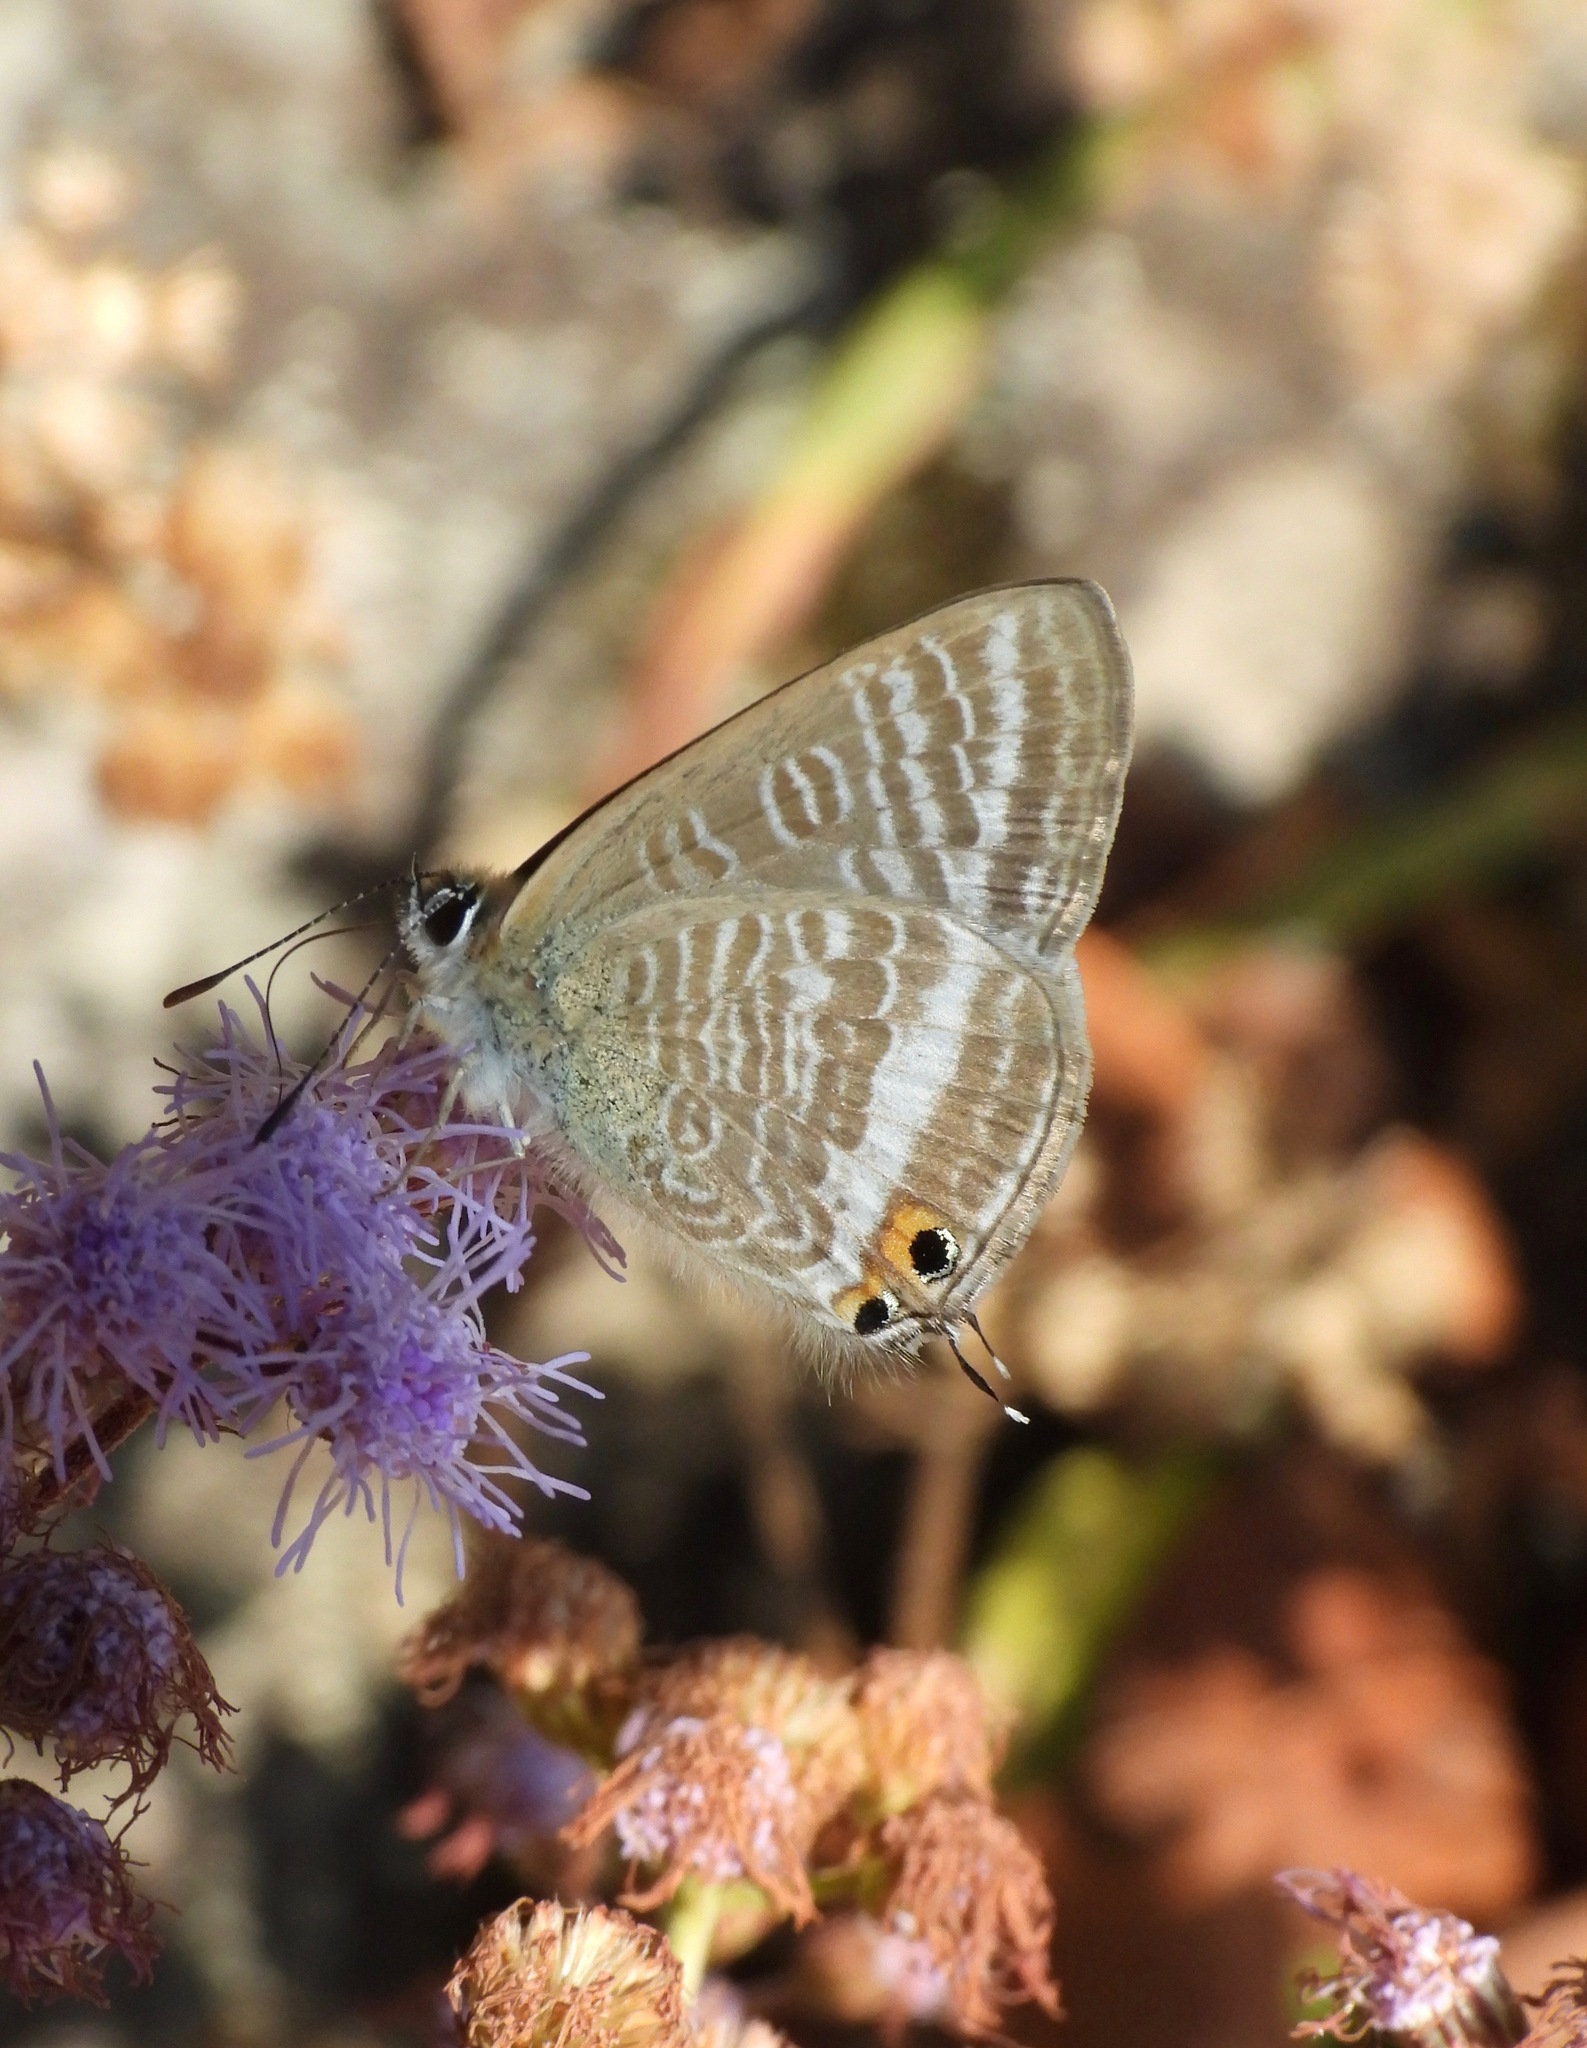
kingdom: Animalia
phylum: Arthropoda
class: Insecta
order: Lepidoptera
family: Lycaenidae
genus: Lampides
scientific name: Lampides boeticus
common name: Long-tailed blue
